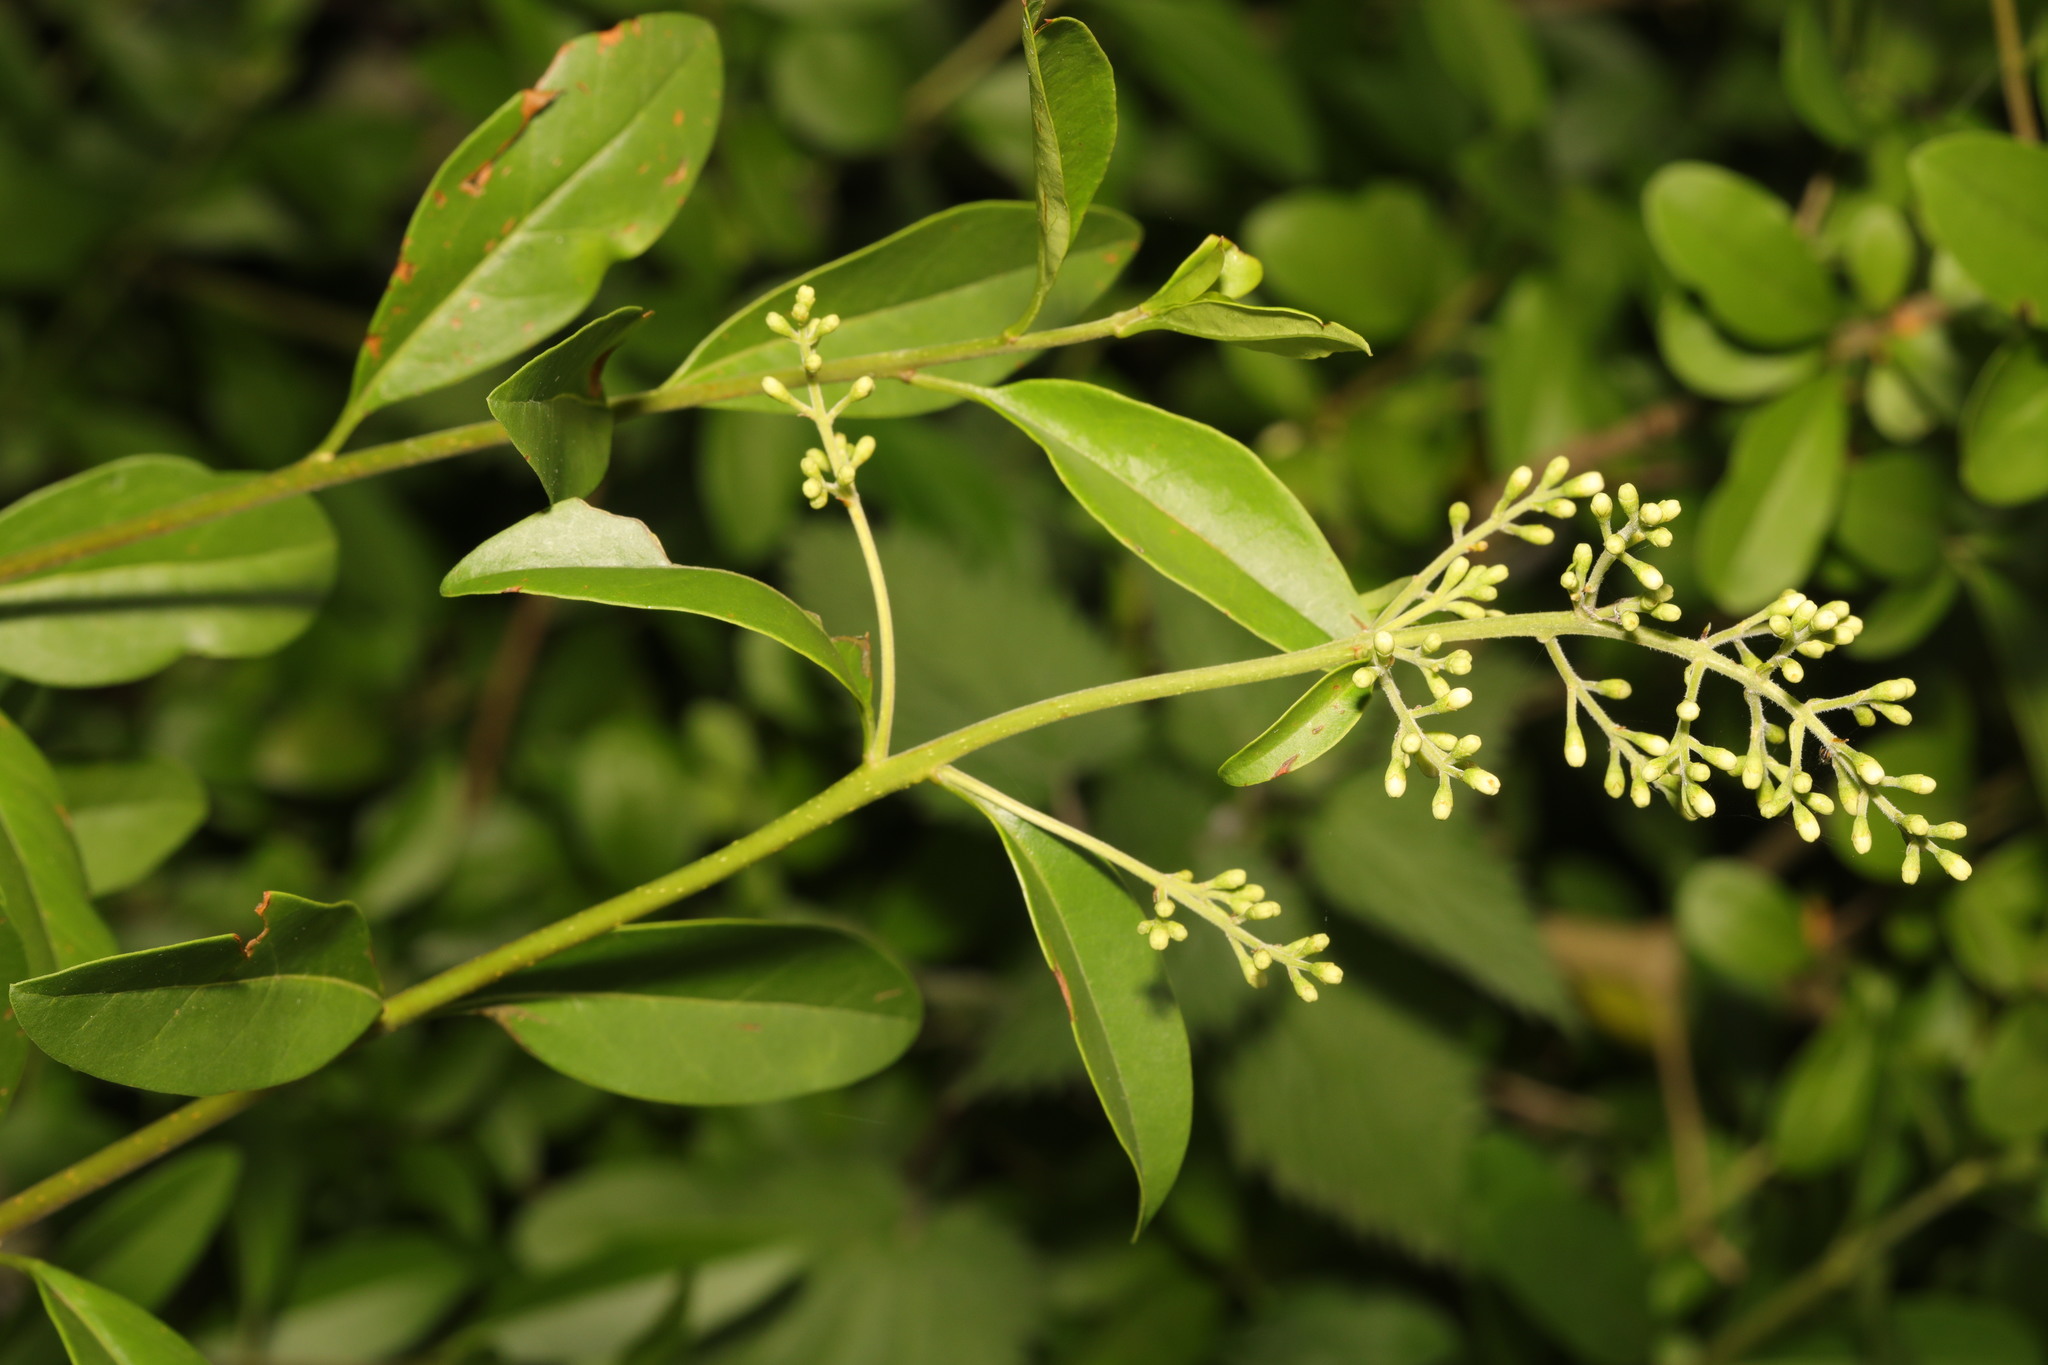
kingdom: Plantae
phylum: Tracheophyta
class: Magnoliopsida
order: Lamiales
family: Oleaceae
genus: Ligustrum
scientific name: Ligustrum vulgare
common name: Wild privet
